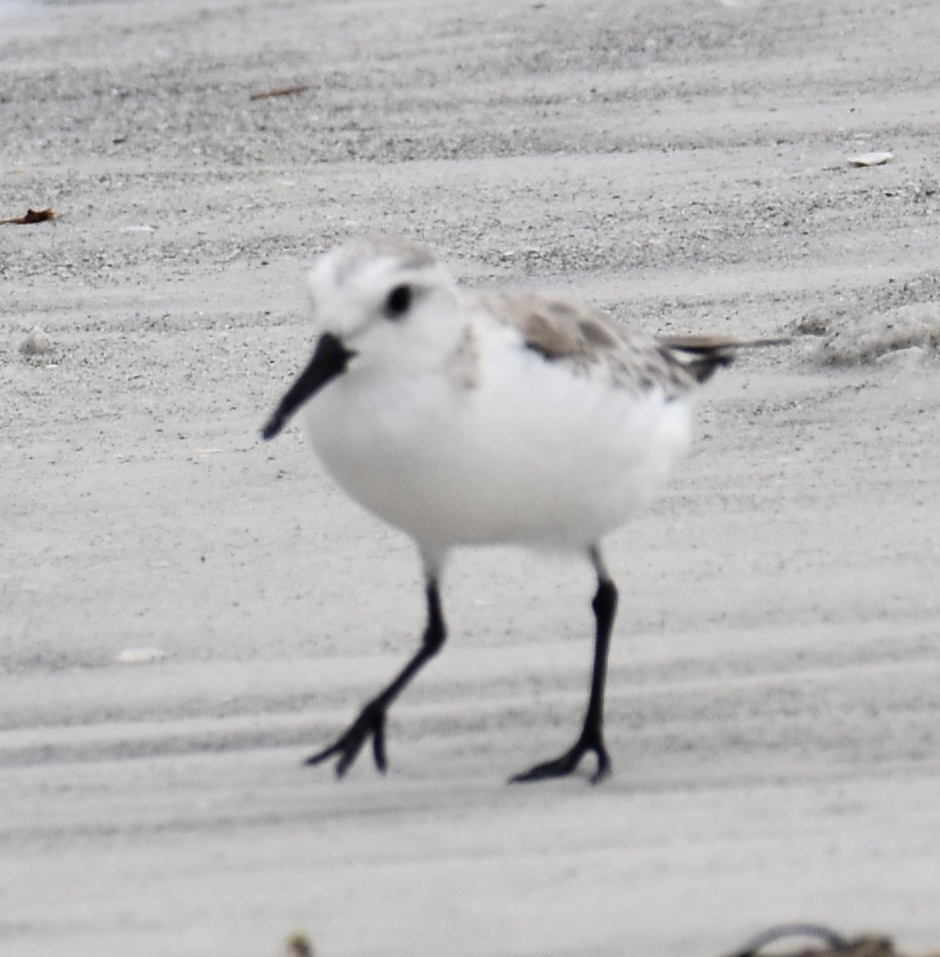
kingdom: Animalia
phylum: Chordata
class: Aves
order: Charadriiformes
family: Scolopacidae
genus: Calidris
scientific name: Calidris alba
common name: Sanderling
